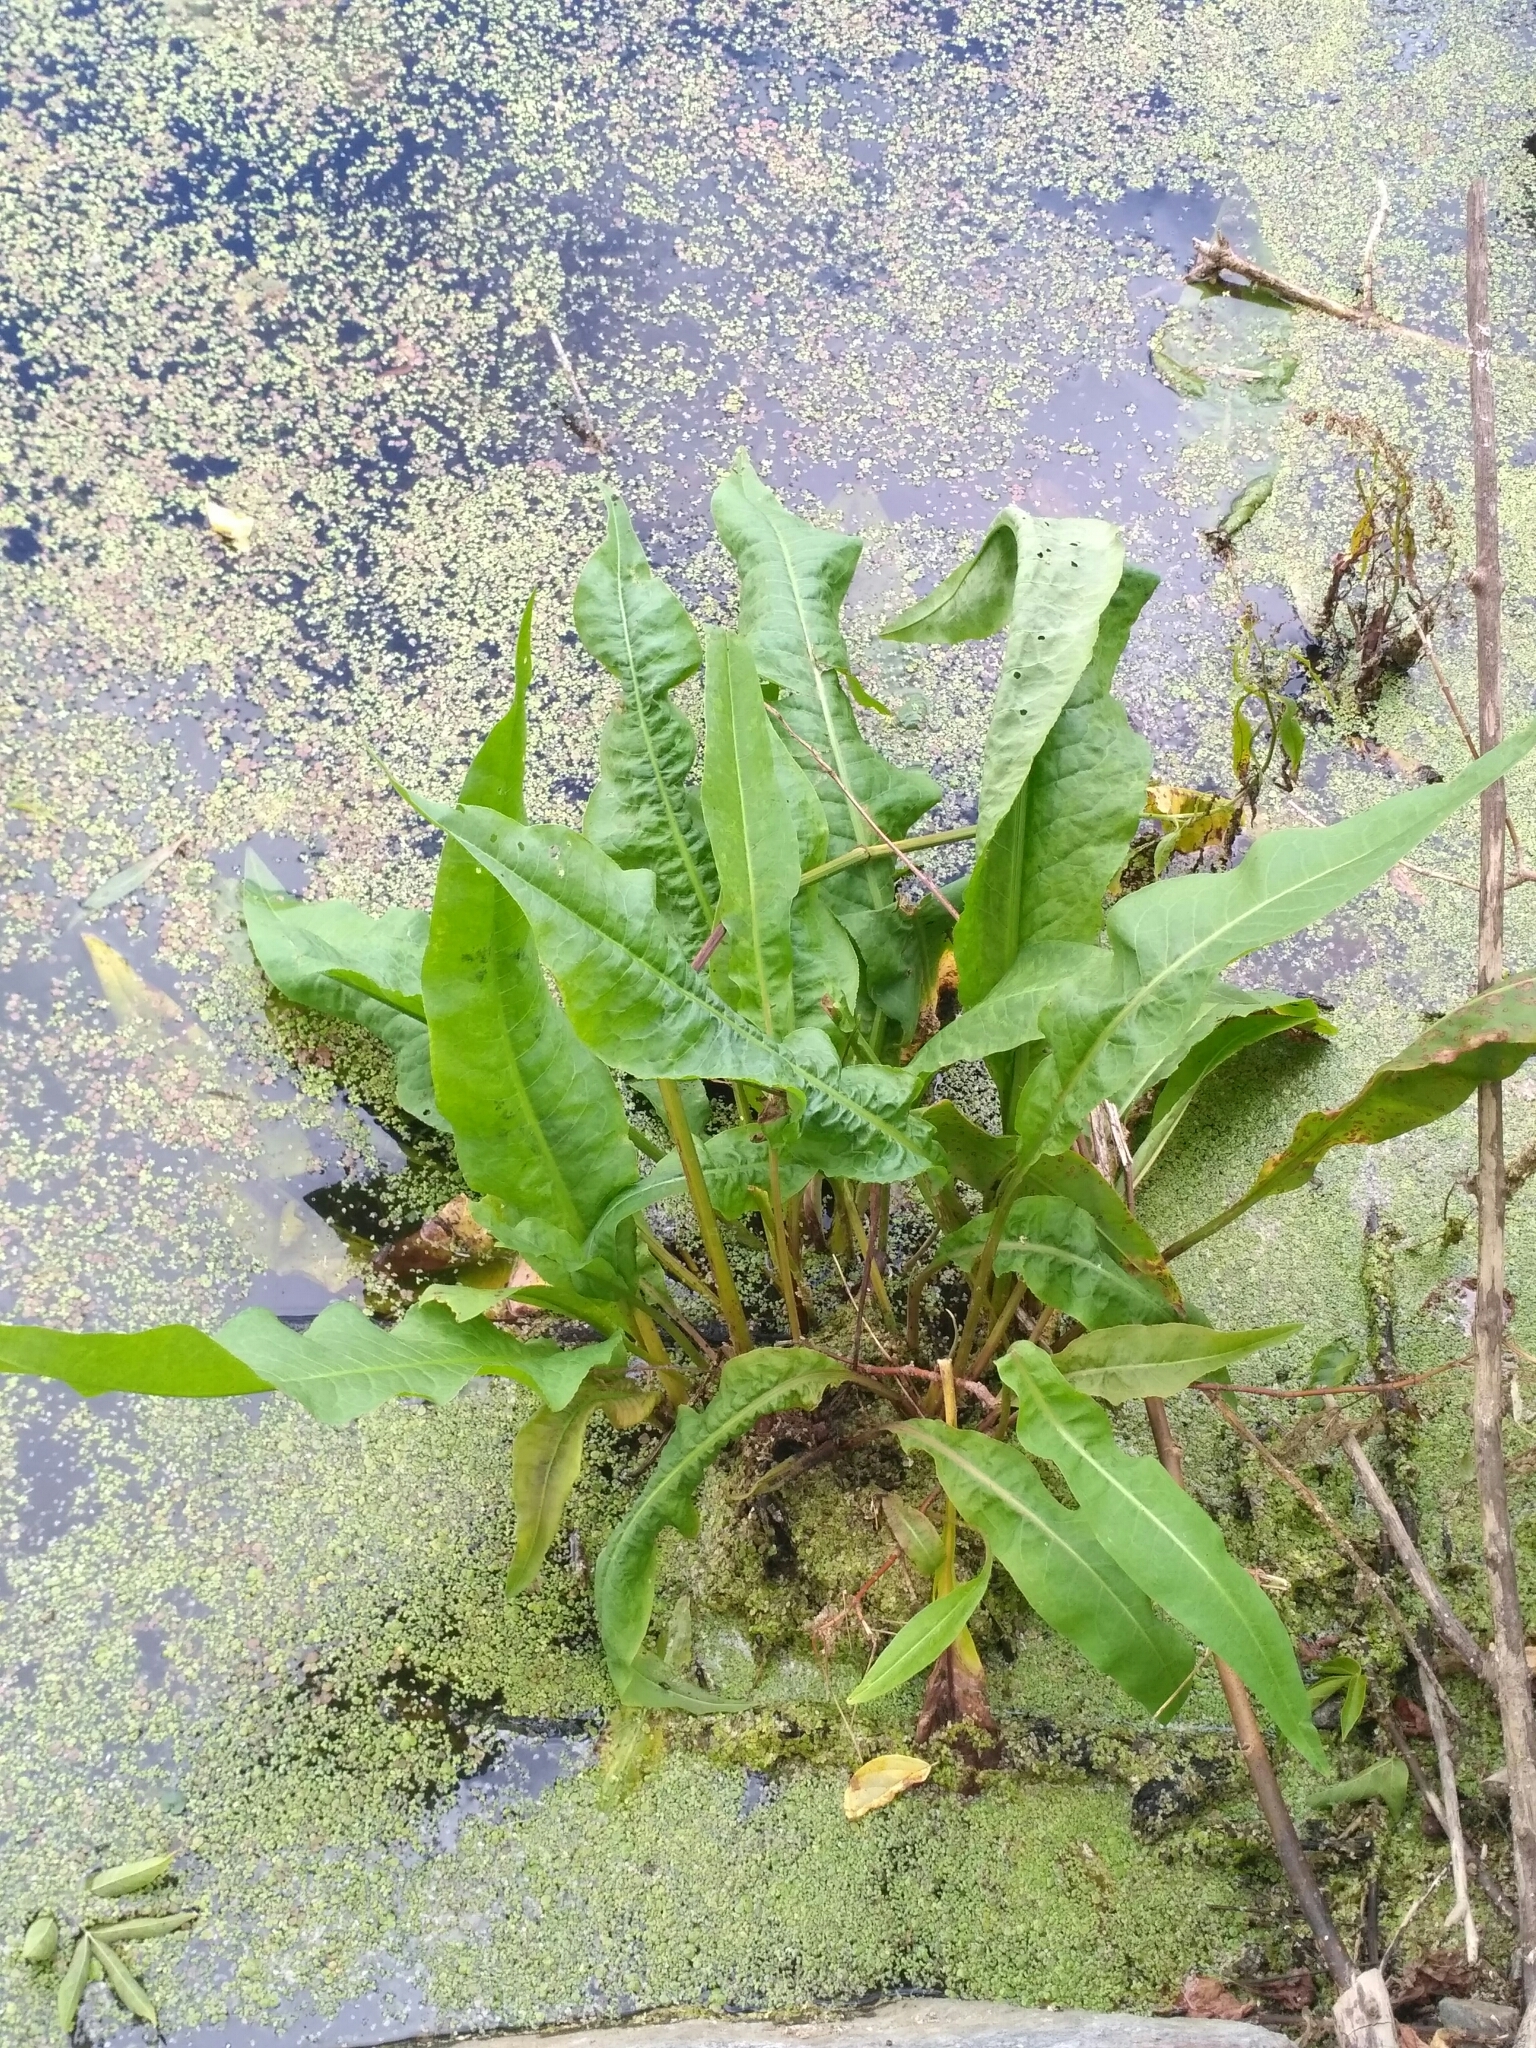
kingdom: Plantae
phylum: Tracheophyta
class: Magnoliopsida
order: Caryophyllales
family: Polygonaceae
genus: Rumex
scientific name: Rumex hydrolapathum
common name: Water dock
